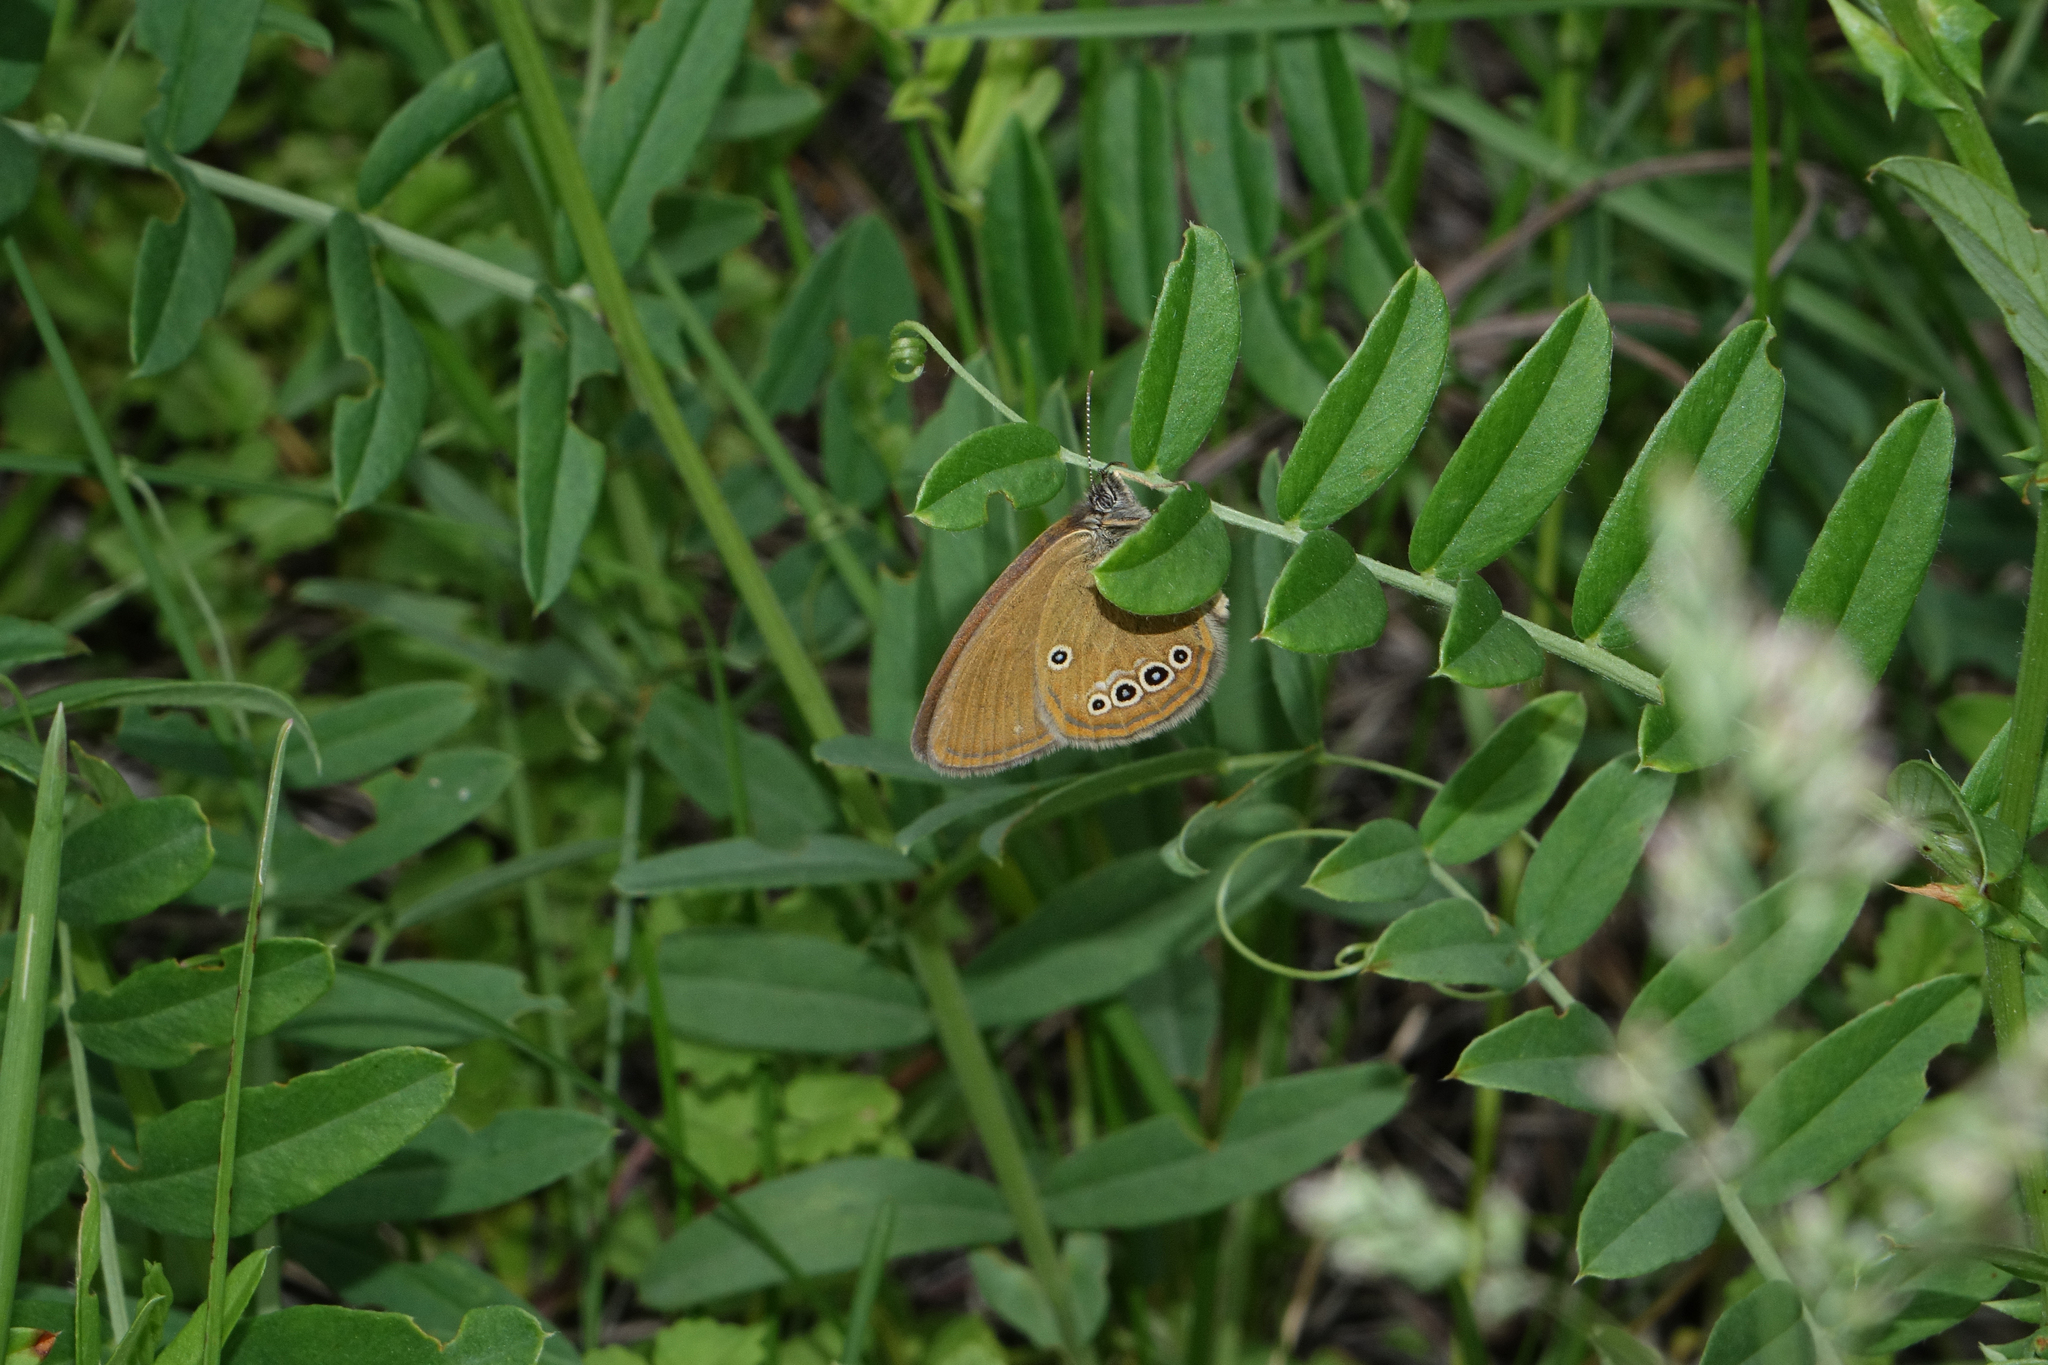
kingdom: Animalia
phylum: Arthropoda
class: Insecta
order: Lepidoptera
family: Nymphalidae
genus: Coenonympha
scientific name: Coenonympha oedippus
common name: False ringlet
